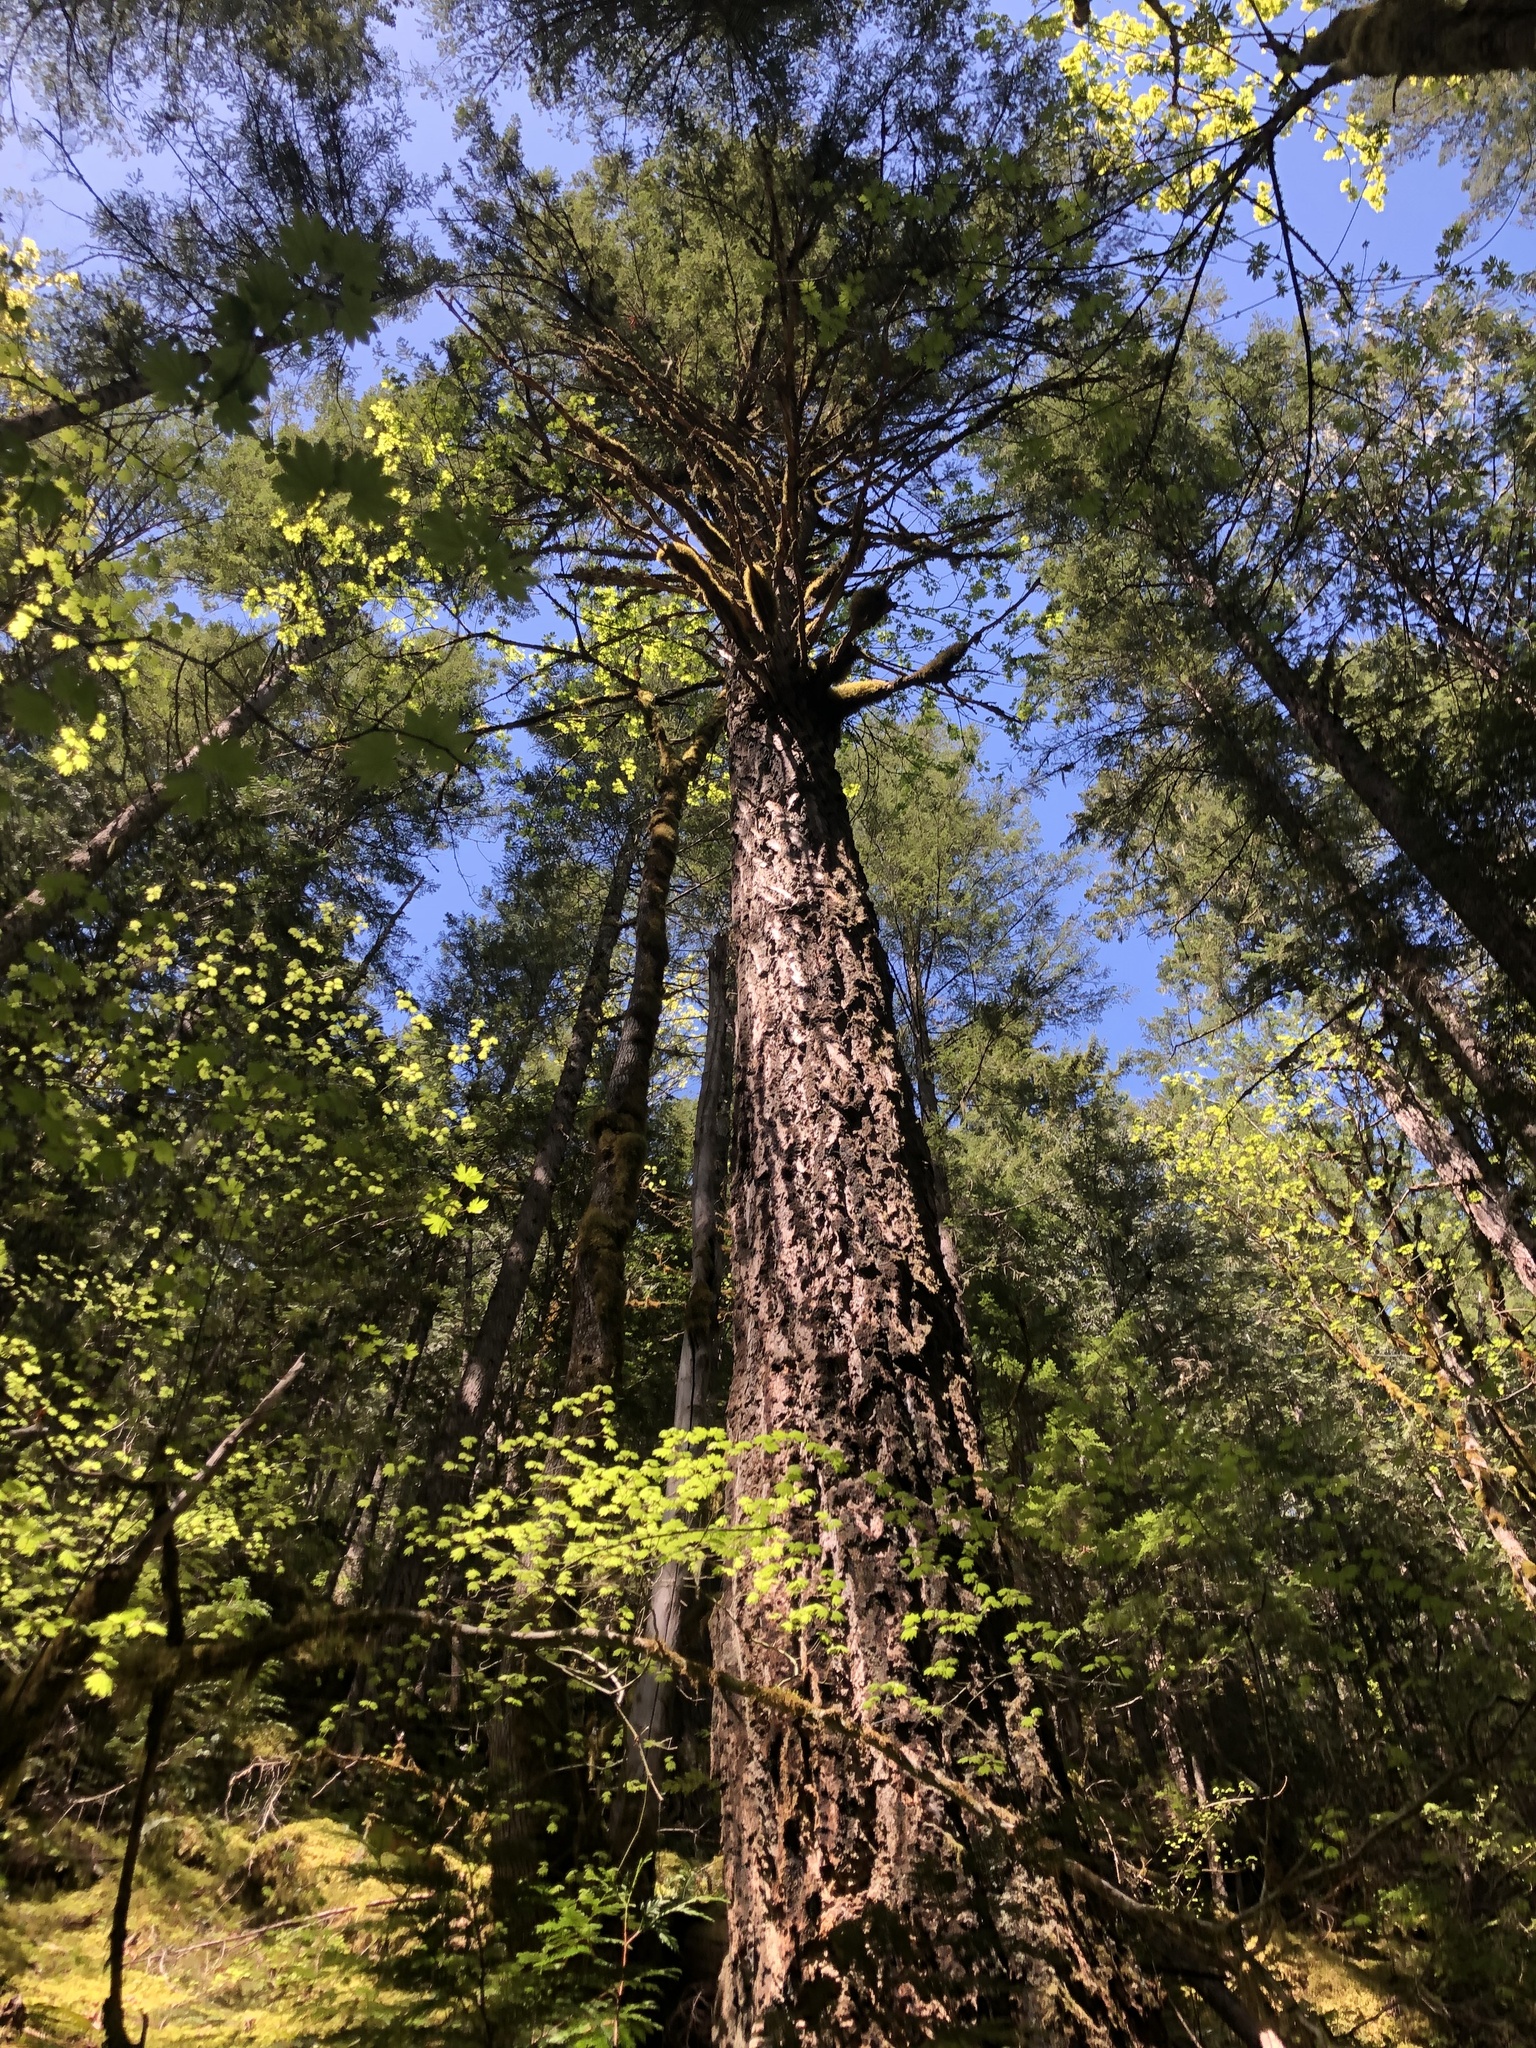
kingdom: Plantae
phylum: Tracheophyta
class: Pinopsida
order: Pinales
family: Pinaceae
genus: Pseudotsuga
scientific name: Pseudotsuga menziesii
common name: Douglas fir
